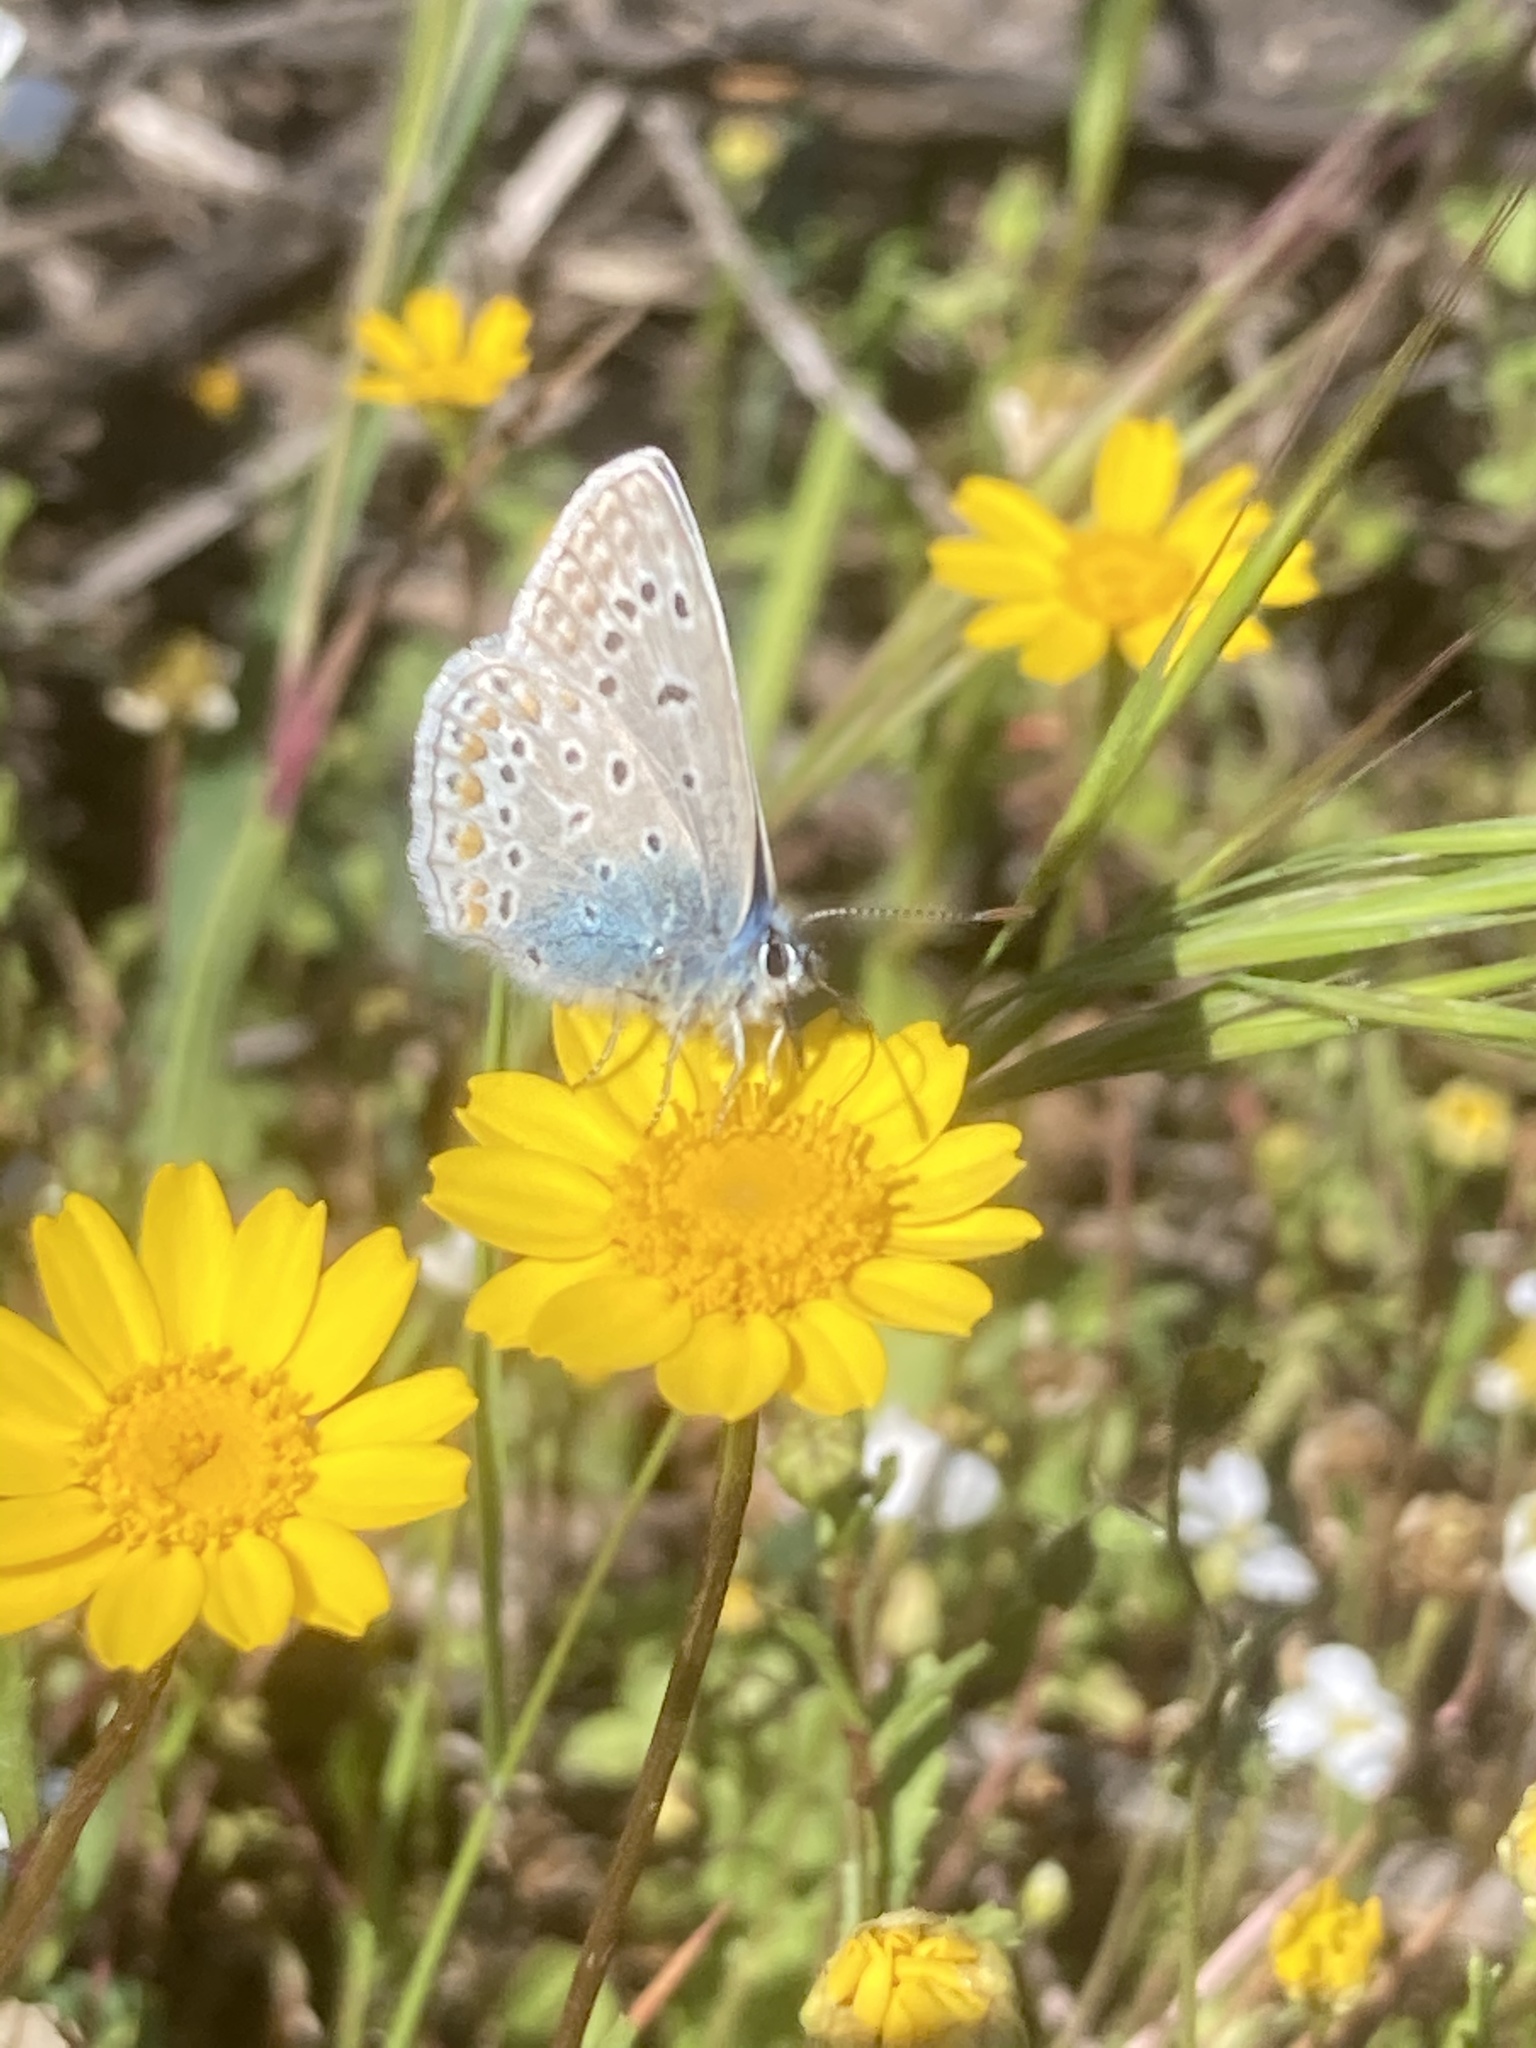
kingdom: Animalia
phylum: Arthropoda
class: Insecta
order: Lepidoptera
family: Lycaenidae
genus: Polyommatus
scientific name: Polyommatus icarus
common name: Common blue
